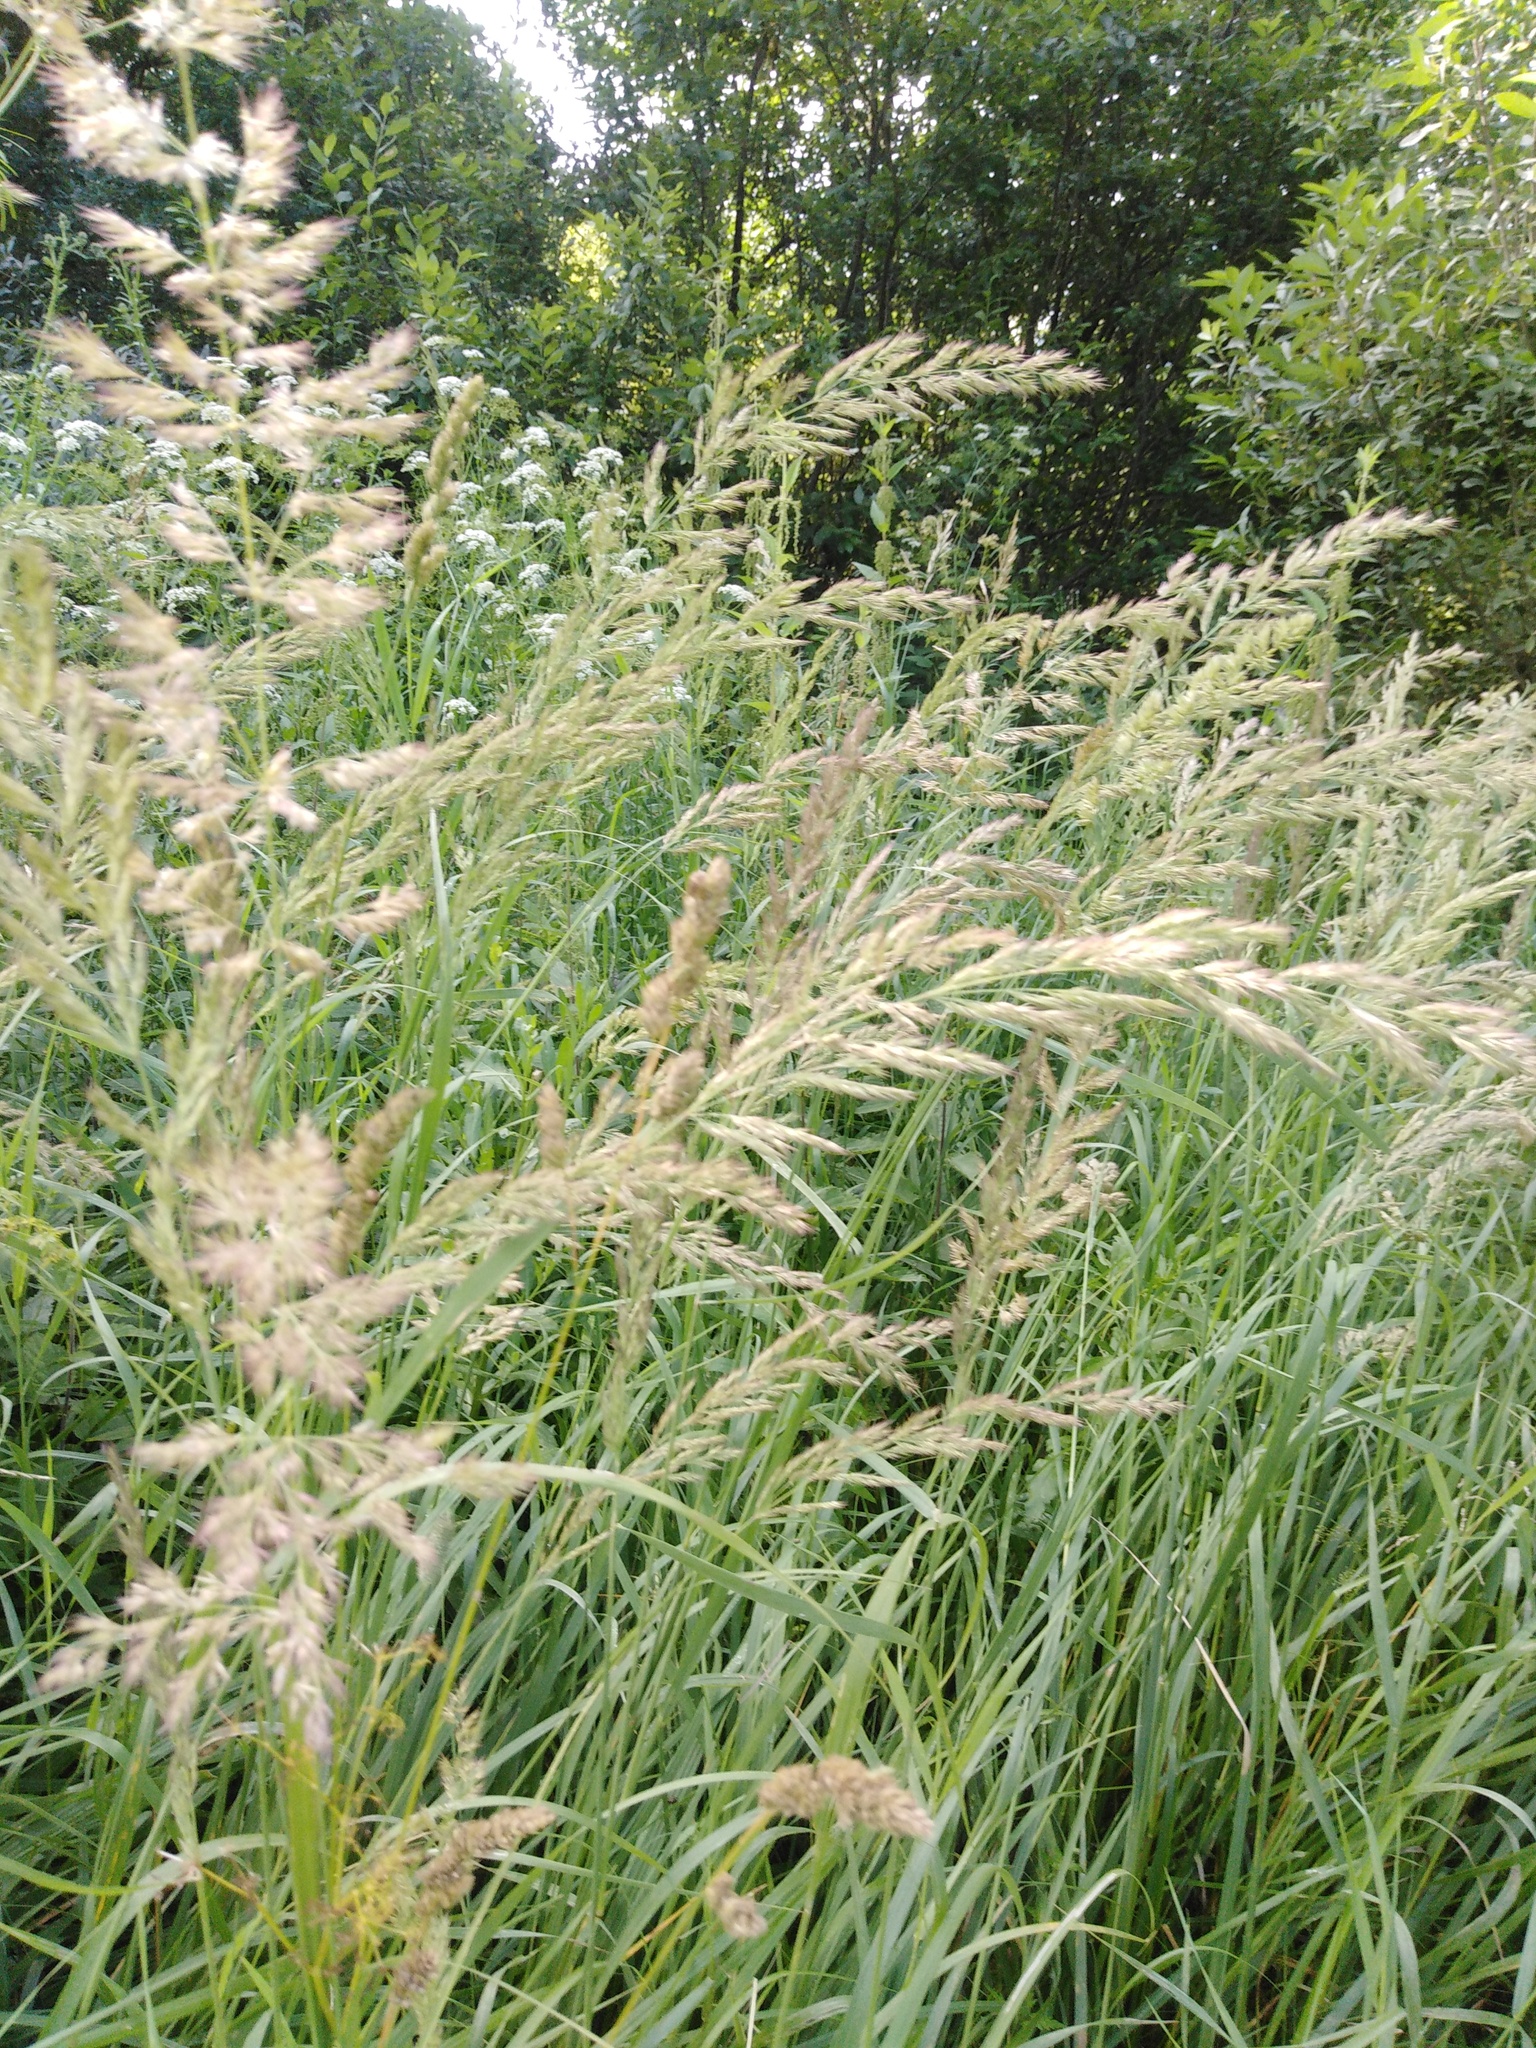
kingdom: Plantae
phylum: Tracheophyta
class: Liliopsida
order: Poales
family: Poaceae
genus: Calamagrostis
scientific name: Calamagrostis epigejos
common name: Wood small-reed
